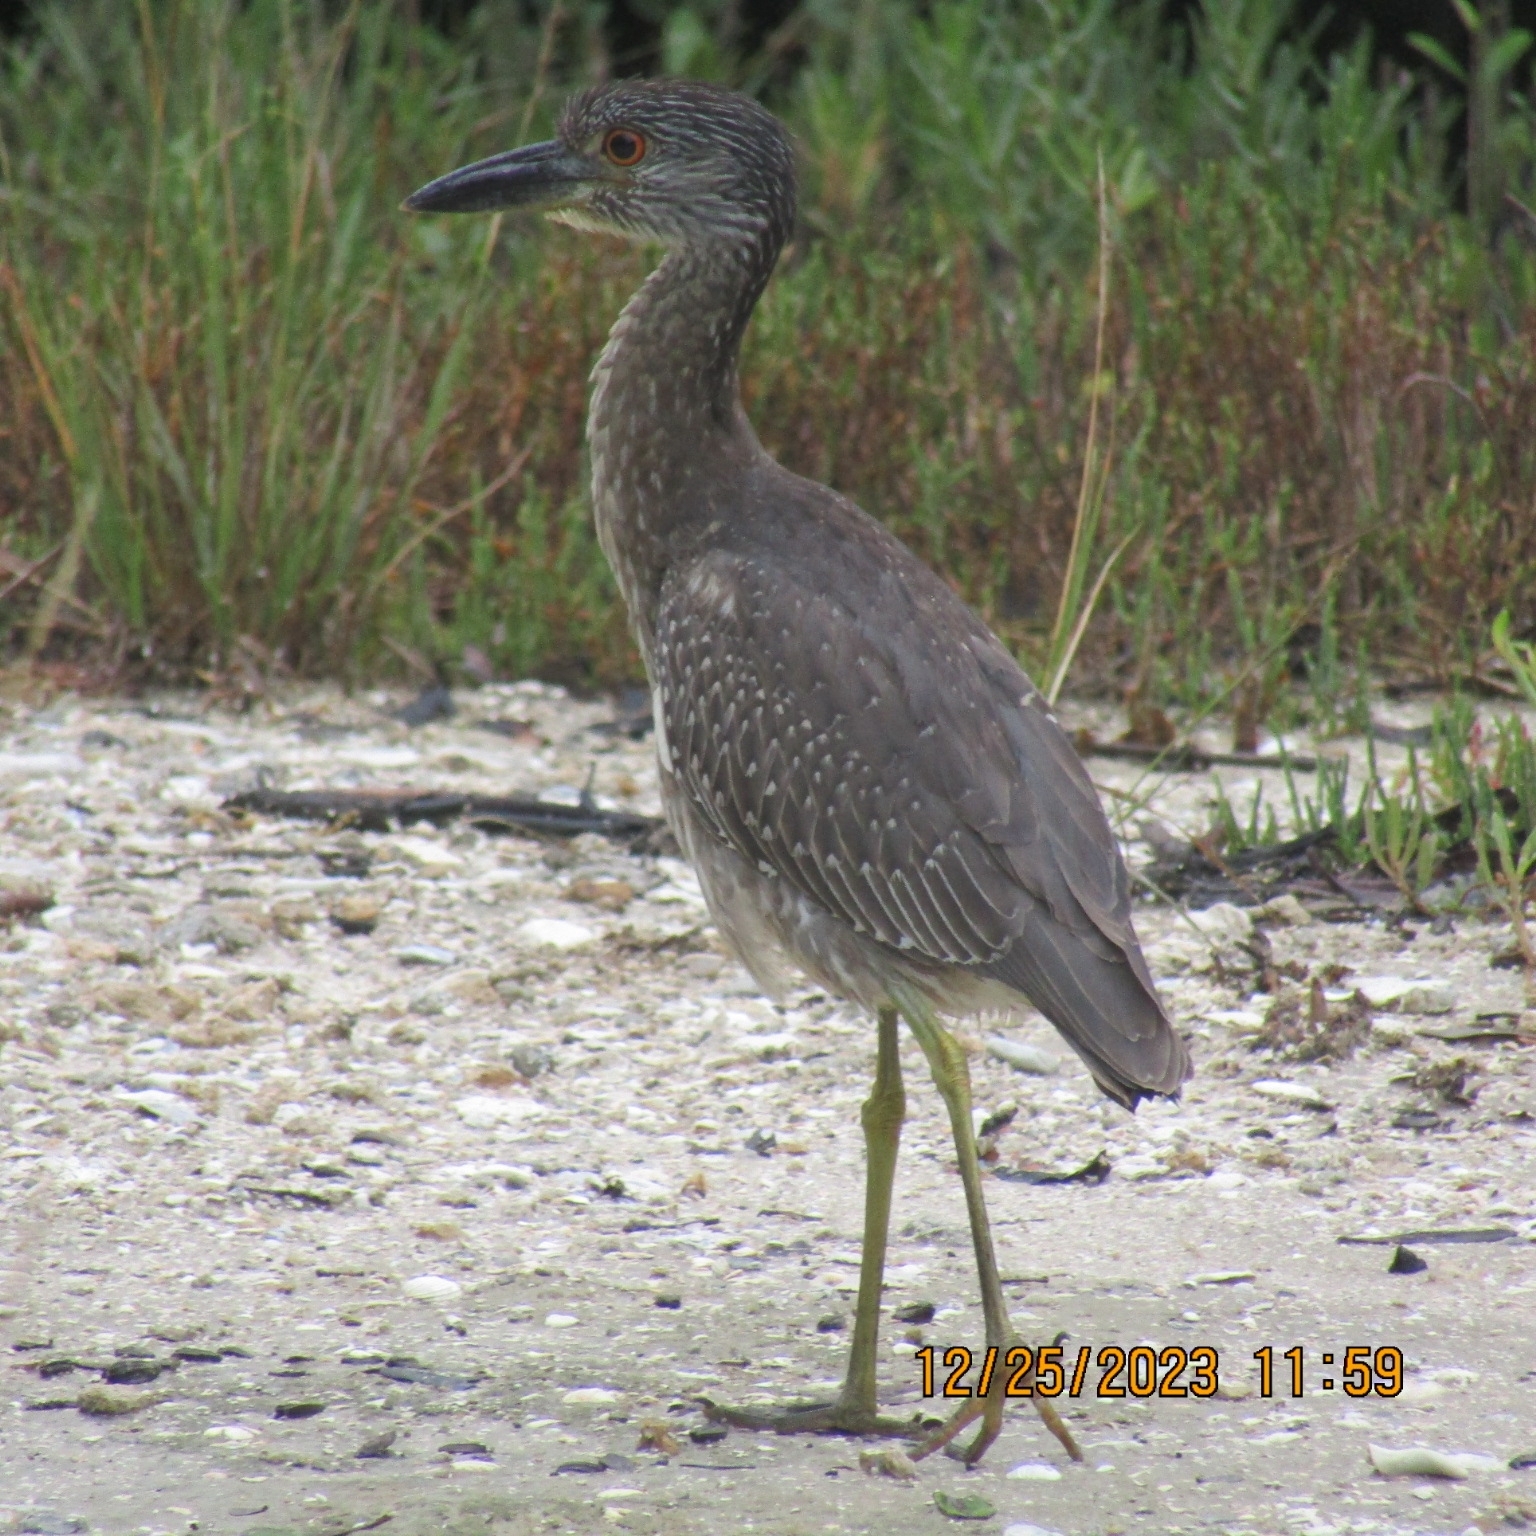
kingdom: Animalia
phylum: Chordata
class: Aves
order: Pelecaniformes
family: Ardeidae
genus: Nyctanassa
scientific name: Nyctanassa violacea
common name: Yellow-crowned night heron
